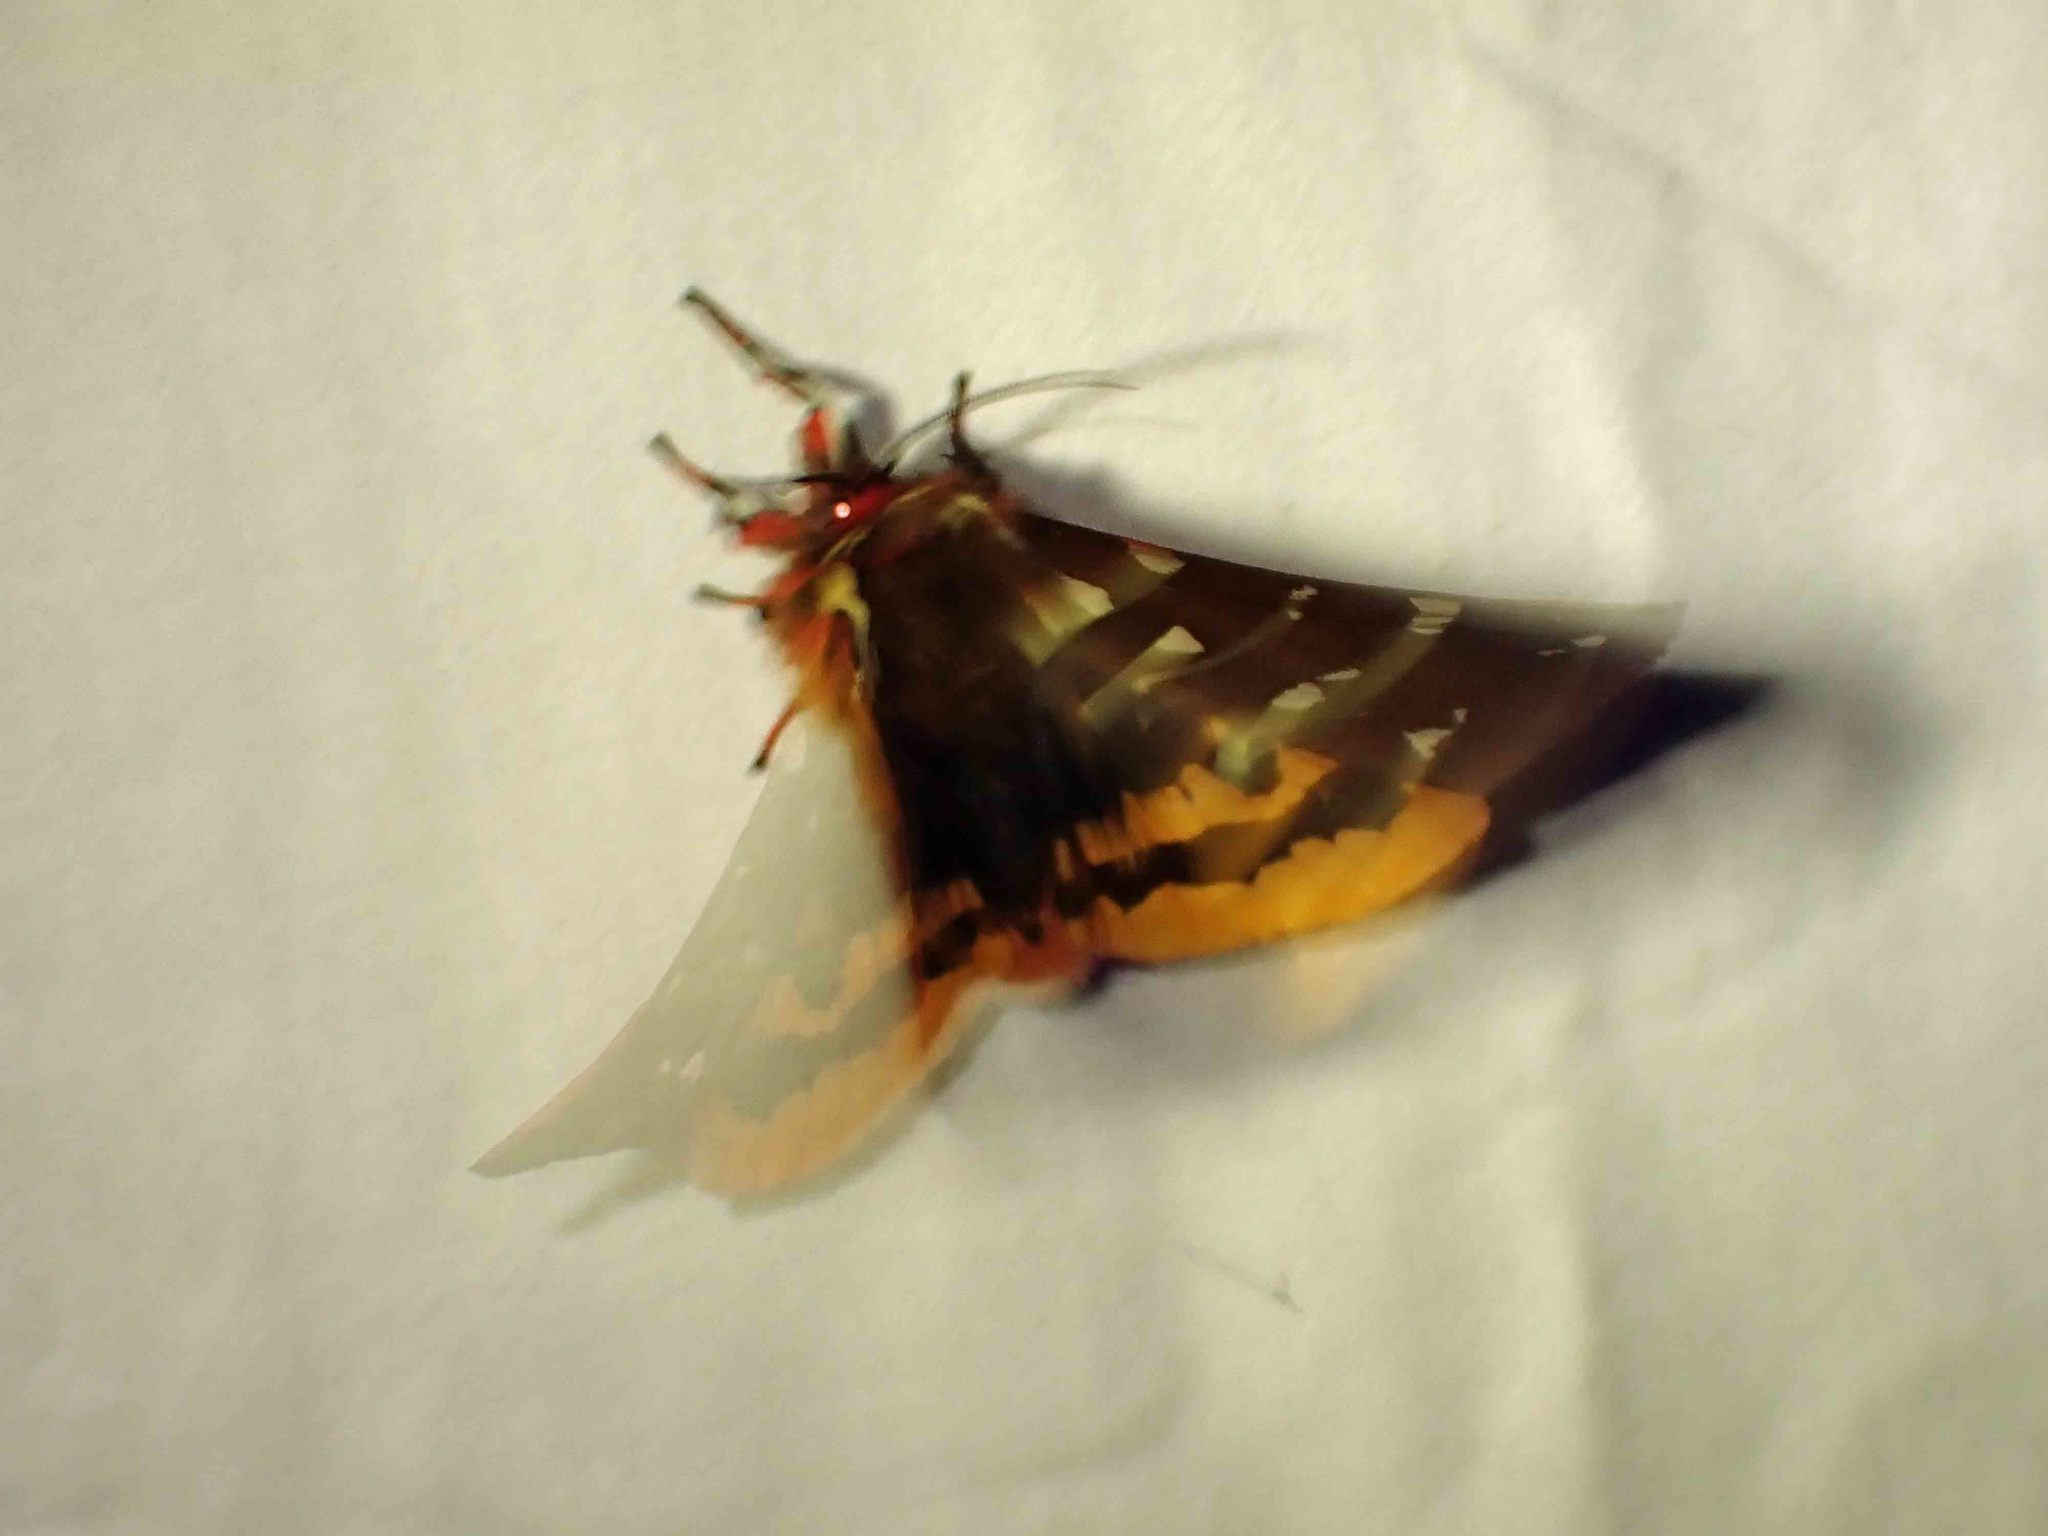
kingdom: Animalia
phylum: Arthropoda
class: Insecta
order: Lepidoptera
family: Erebidae
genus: Arctia
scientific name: Arctia parthenos
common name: St. lawrence tiger moth
